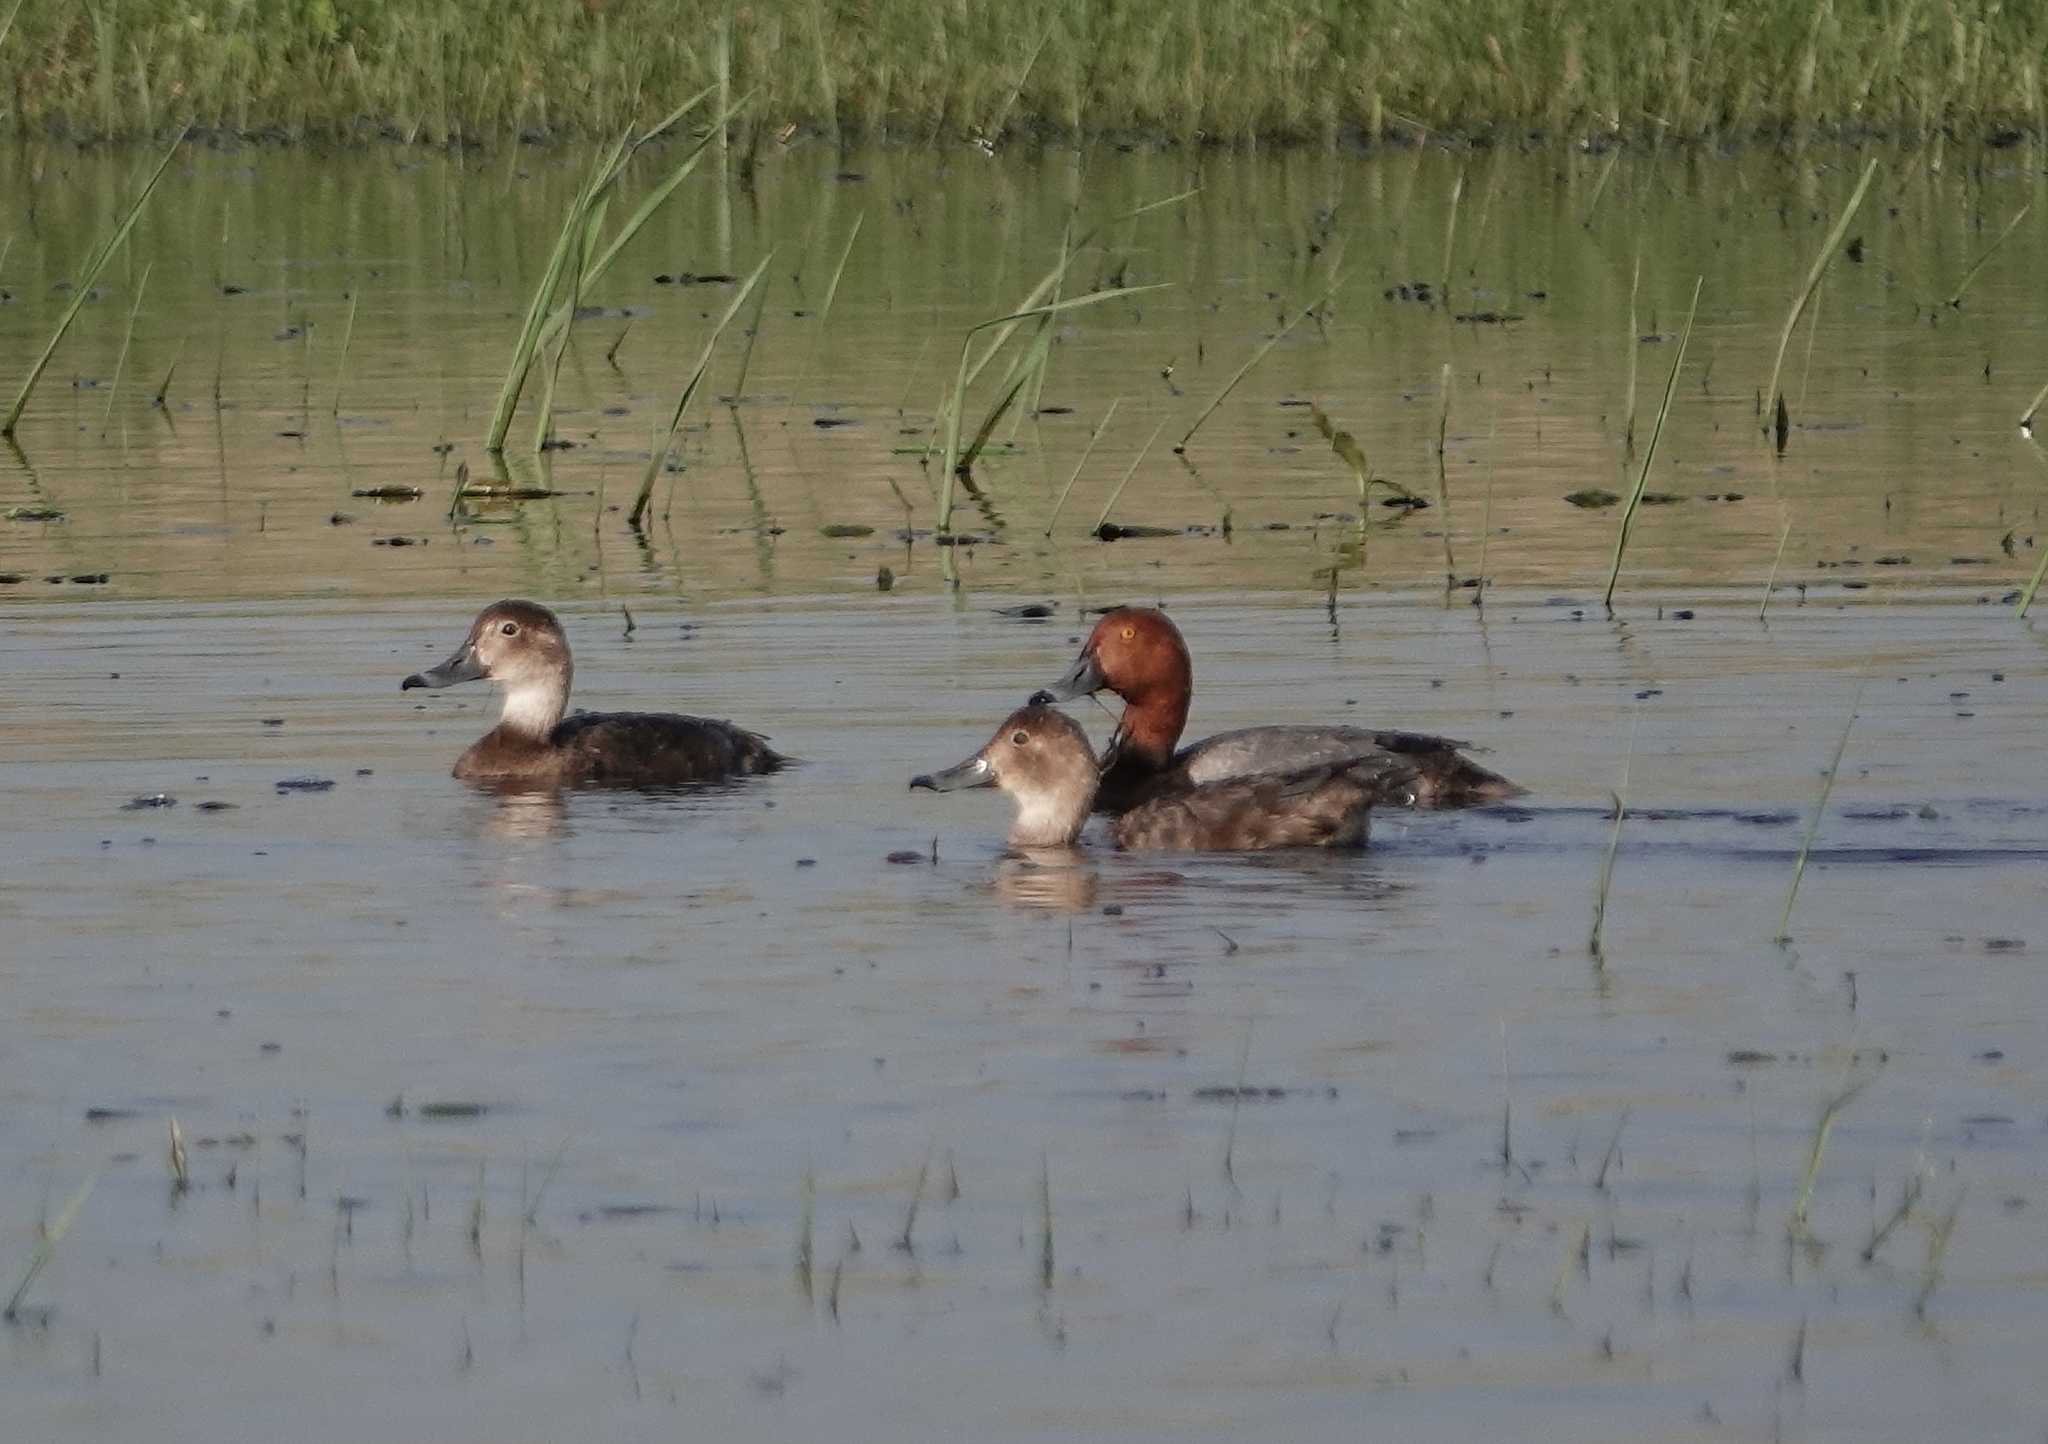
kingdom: Animalia
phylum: Chordata
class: Aves
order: Anseriformes
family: Anatidae
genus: Aythya
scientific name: Aythya americana
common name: Redhead
